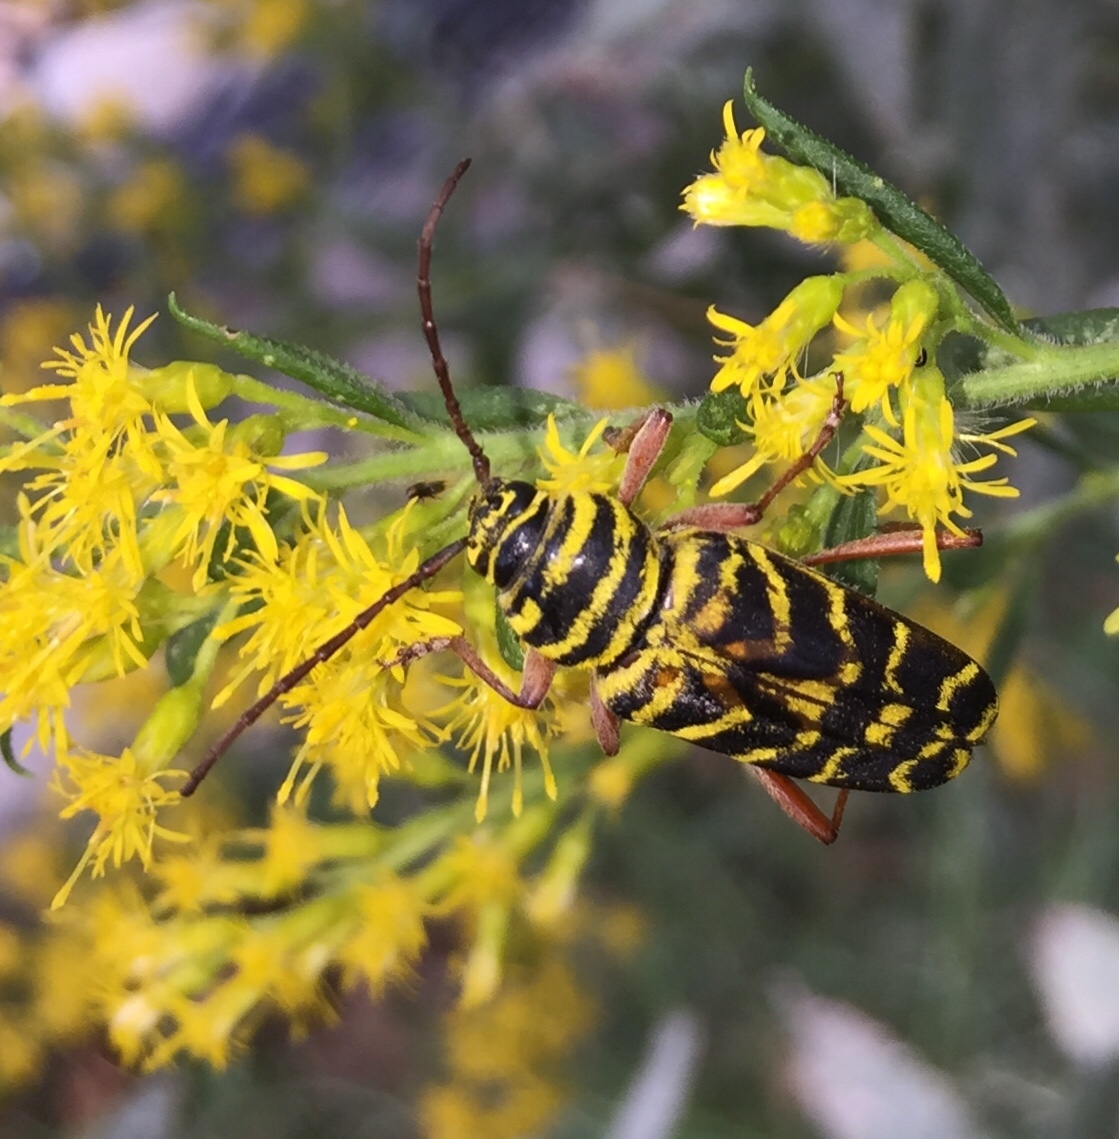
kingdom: Animalia
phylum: Arthropoda
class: Insecta
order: Coleoptera
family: Cerambycidae
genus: Megacyllene
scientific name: Megacyllene robiniae
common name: Locust borer
